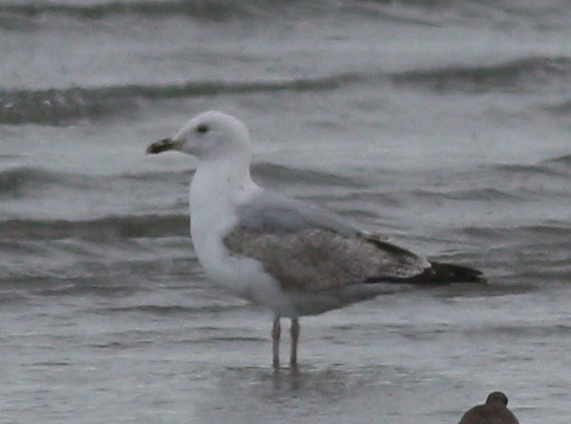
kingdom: Animalia
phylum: Chordata
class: Aves
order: Charadriiformes
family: Laridae
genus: Larus
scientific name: Larus argentatus
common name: Herring gull
